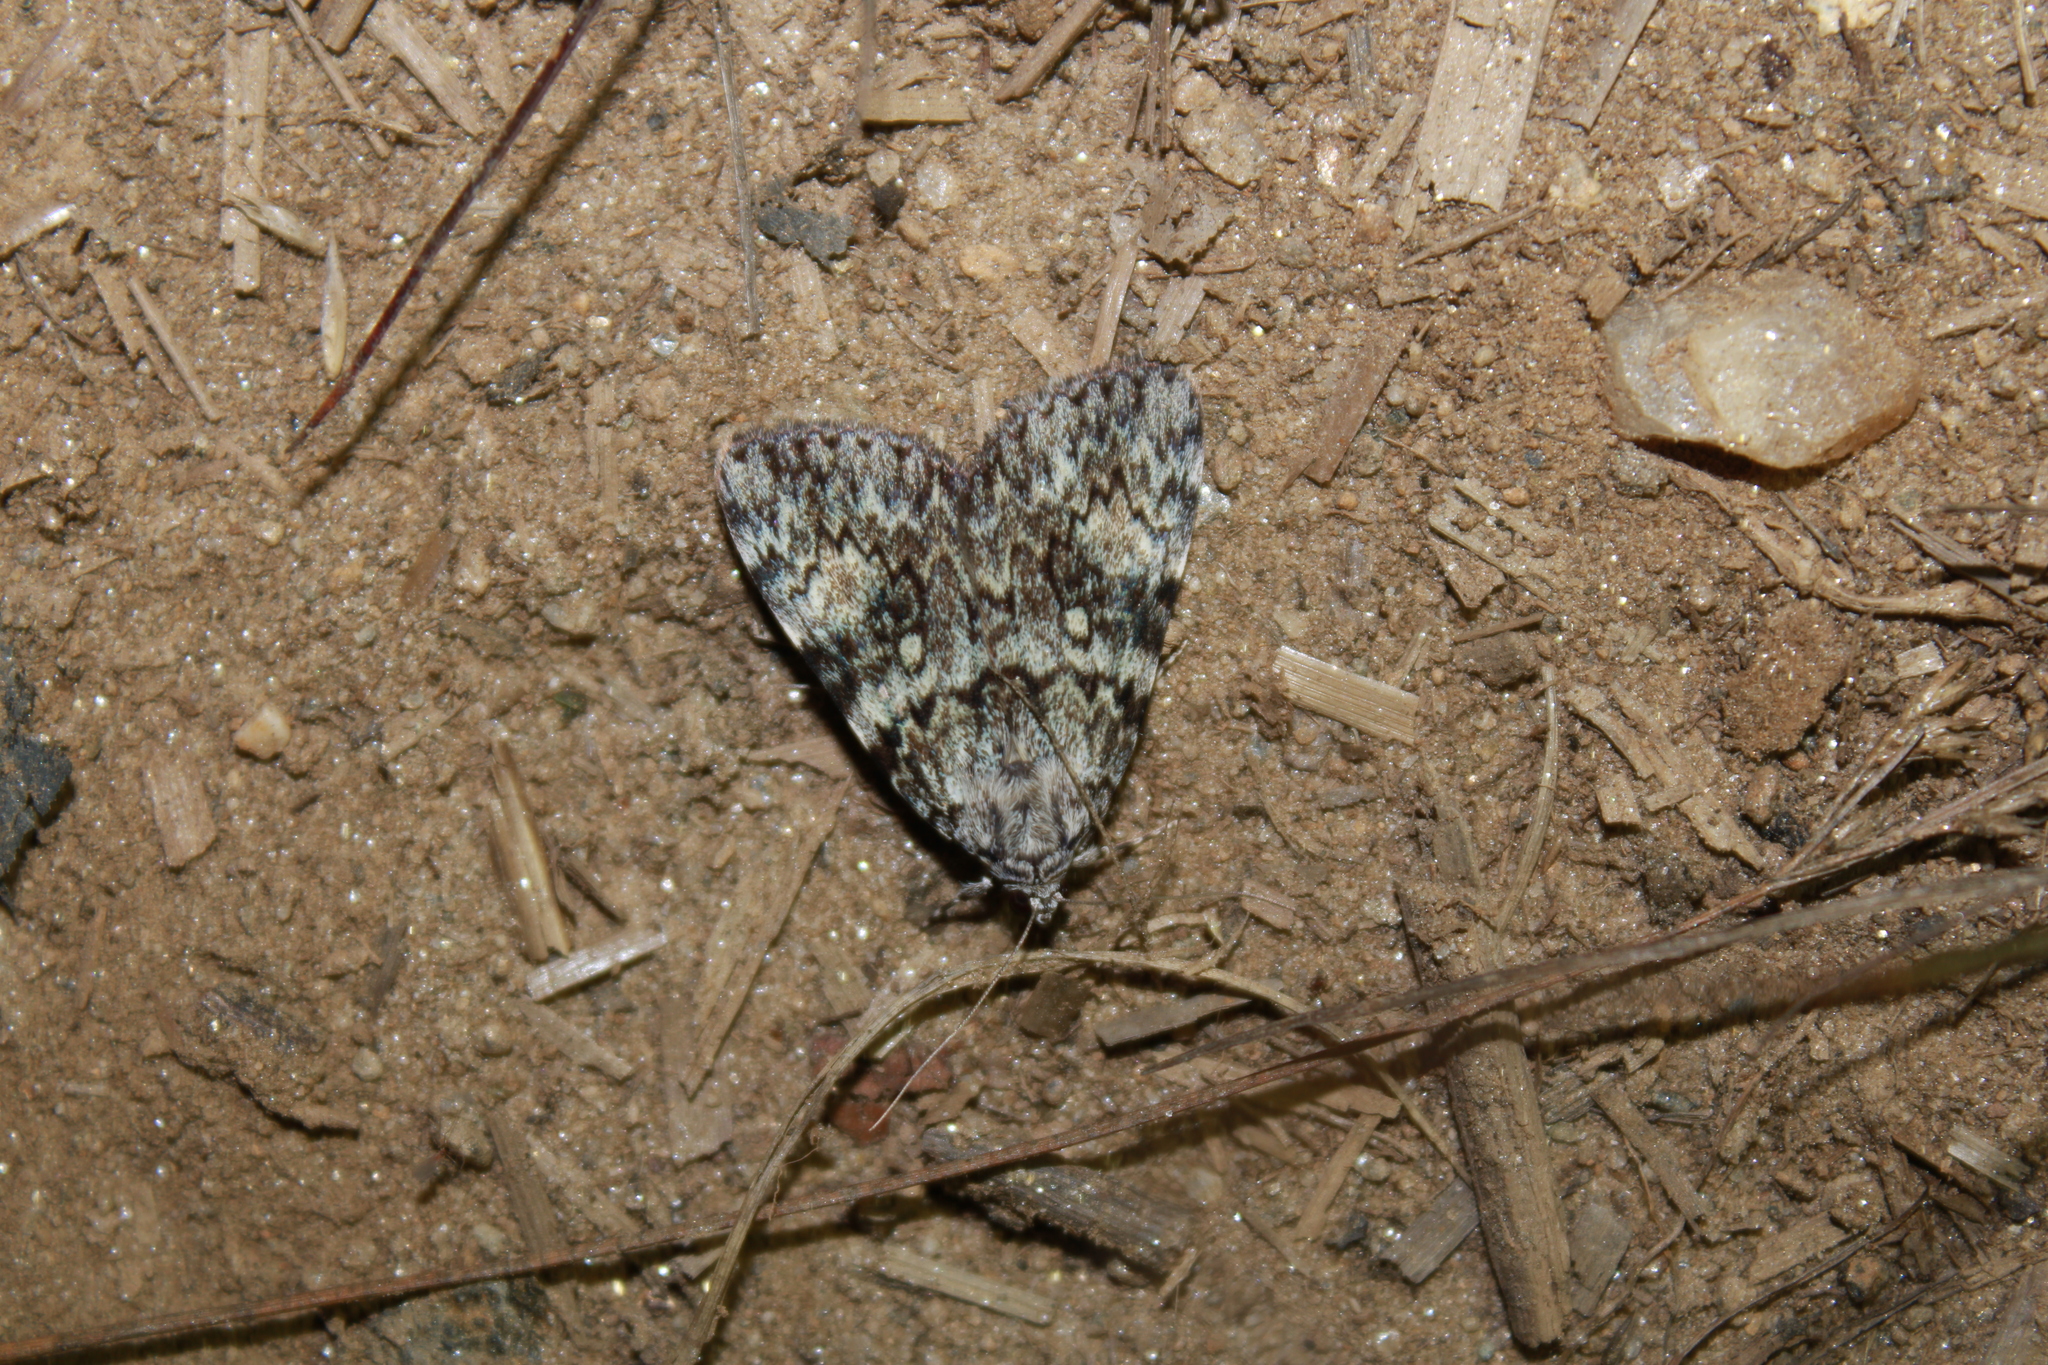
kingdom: Animalia
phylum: Arthropoda
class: Insecta
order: Lepidoptera
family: Erebidae
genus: Catocala
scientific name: Catocala lineella
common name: Little lined underwing
